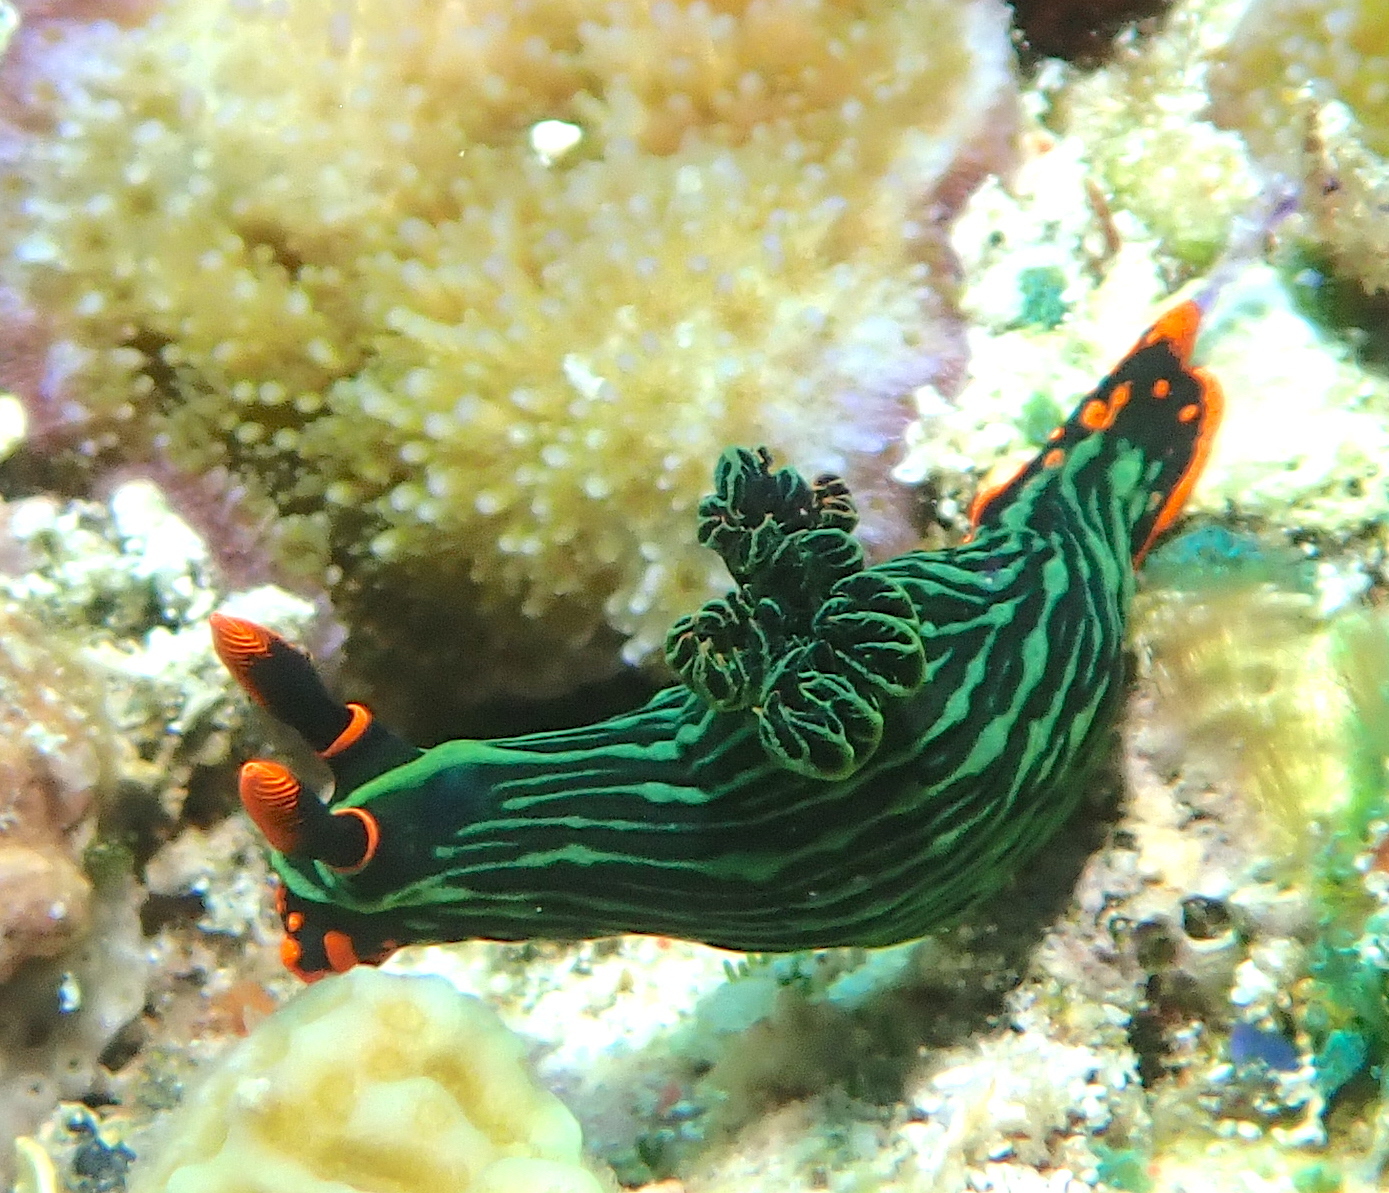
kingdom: Animalia
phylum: Mollusca
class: Gastropoda
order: Nudibranchia
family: Polyceridae
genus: Nembrotha
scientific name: Nembrotha kubaryana
